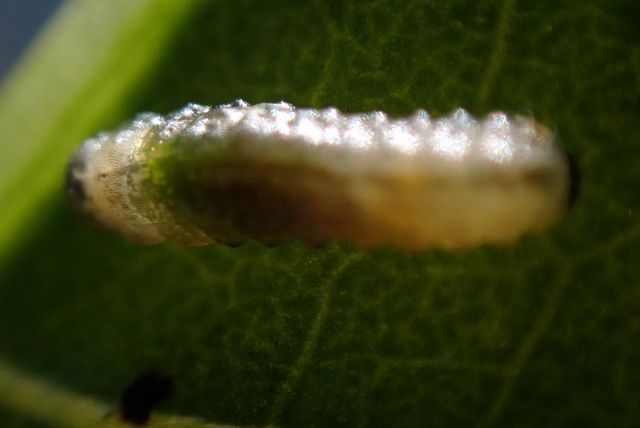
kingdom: Animalia
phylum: Arthropoda
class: Insecta
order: Coleoptera
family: Chrysomelidae
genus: Agasicles
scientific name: Agasicles hygrophila
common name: Alligatorweed flea beetle
